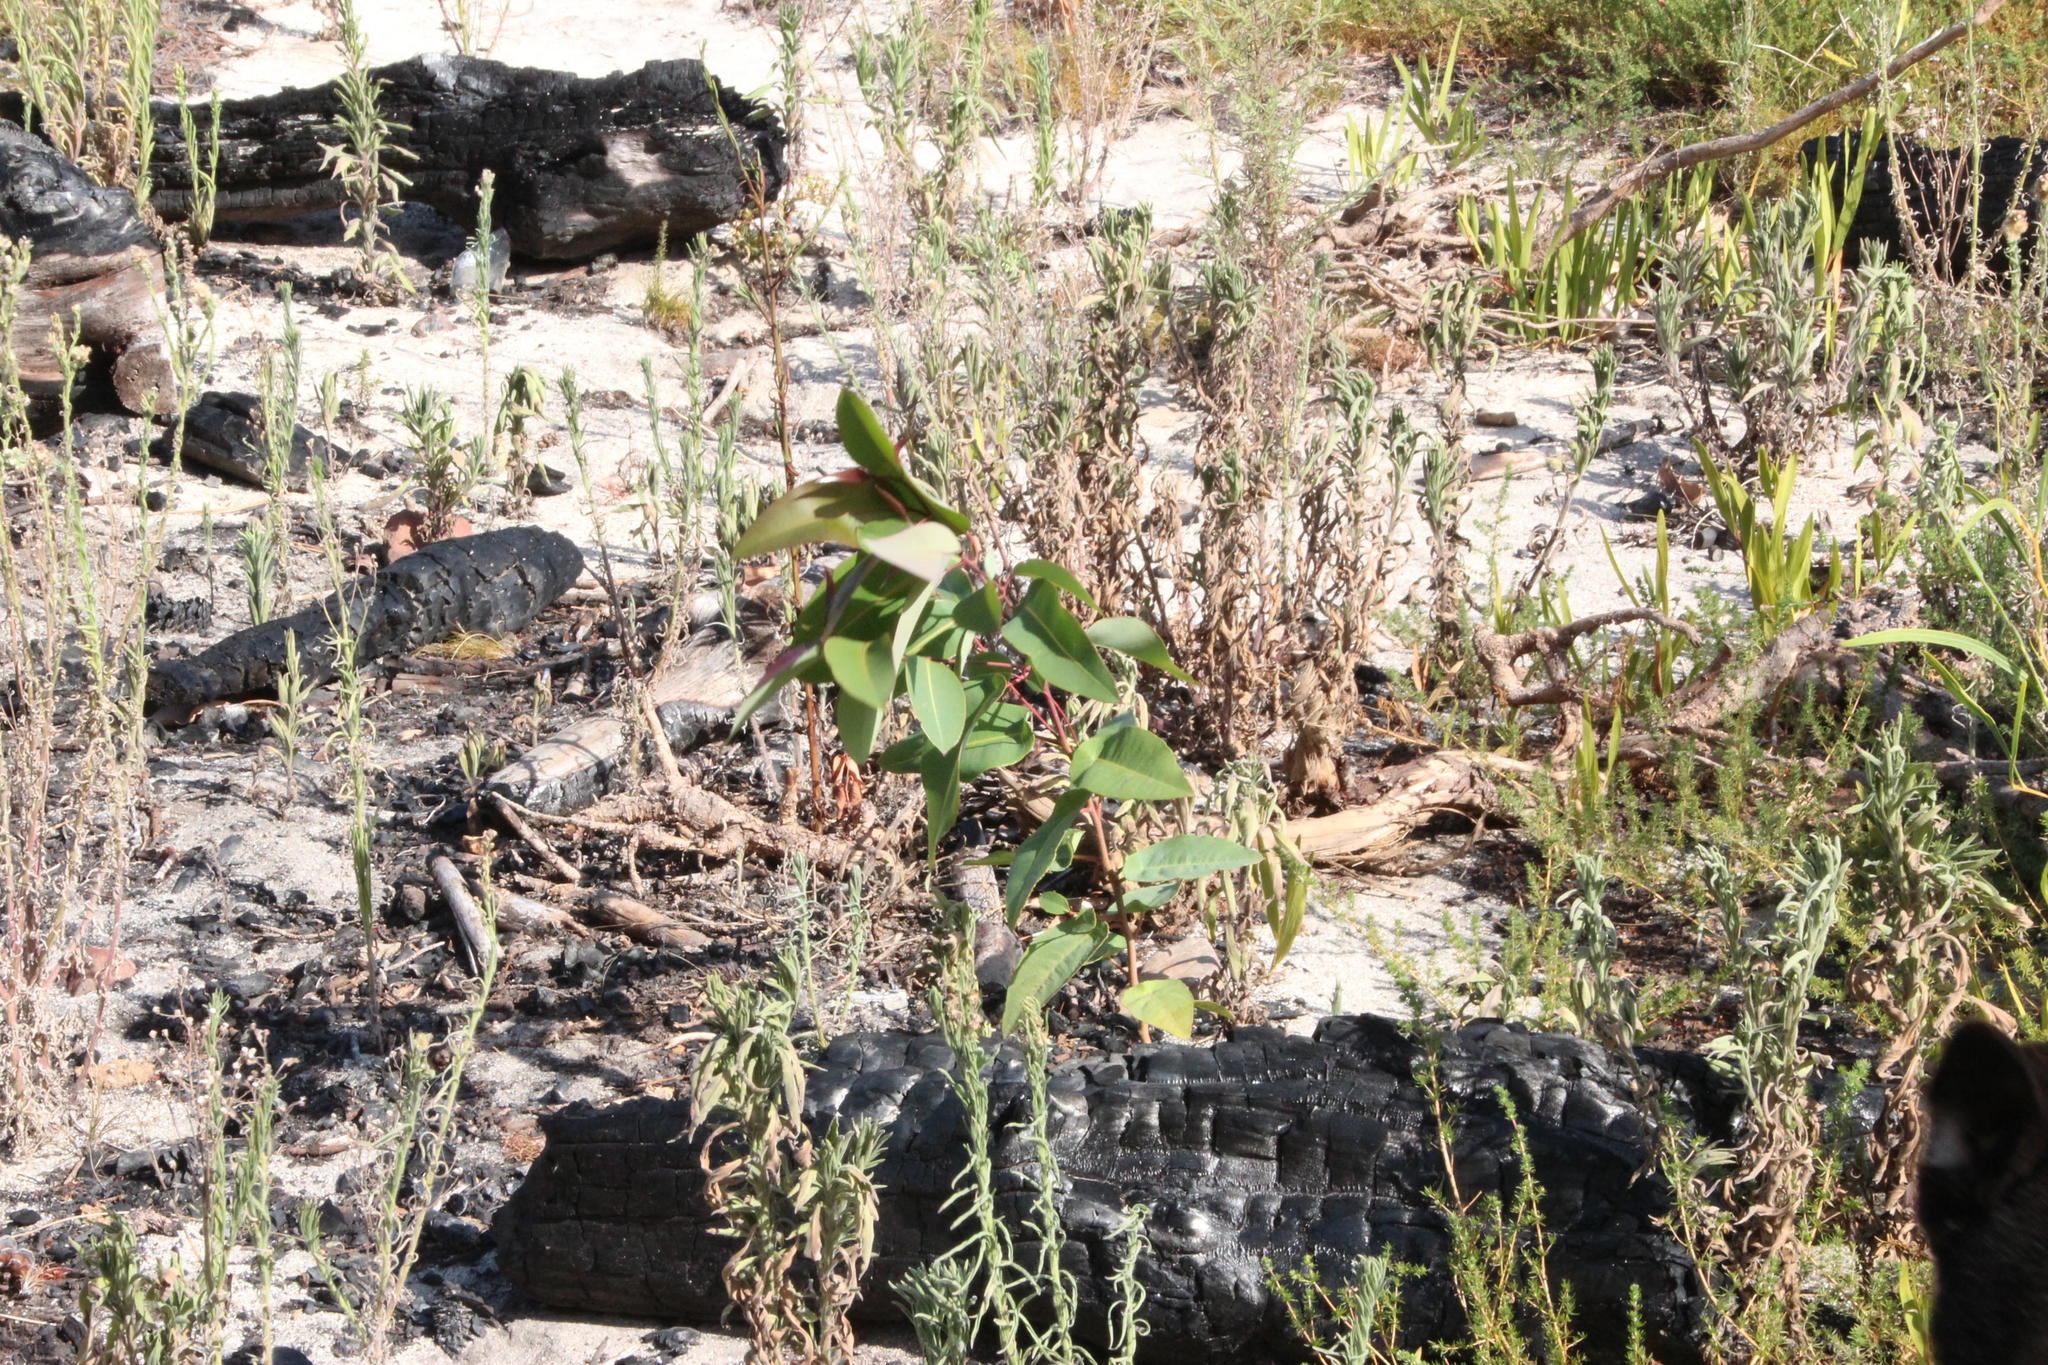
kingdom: Plantae
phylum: Tracheophyta
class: Magnoliopsida
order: Myrtales
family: Myrtaceae
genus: Corymbia
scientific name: Corymbia ficifolia
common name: Redflower gum
